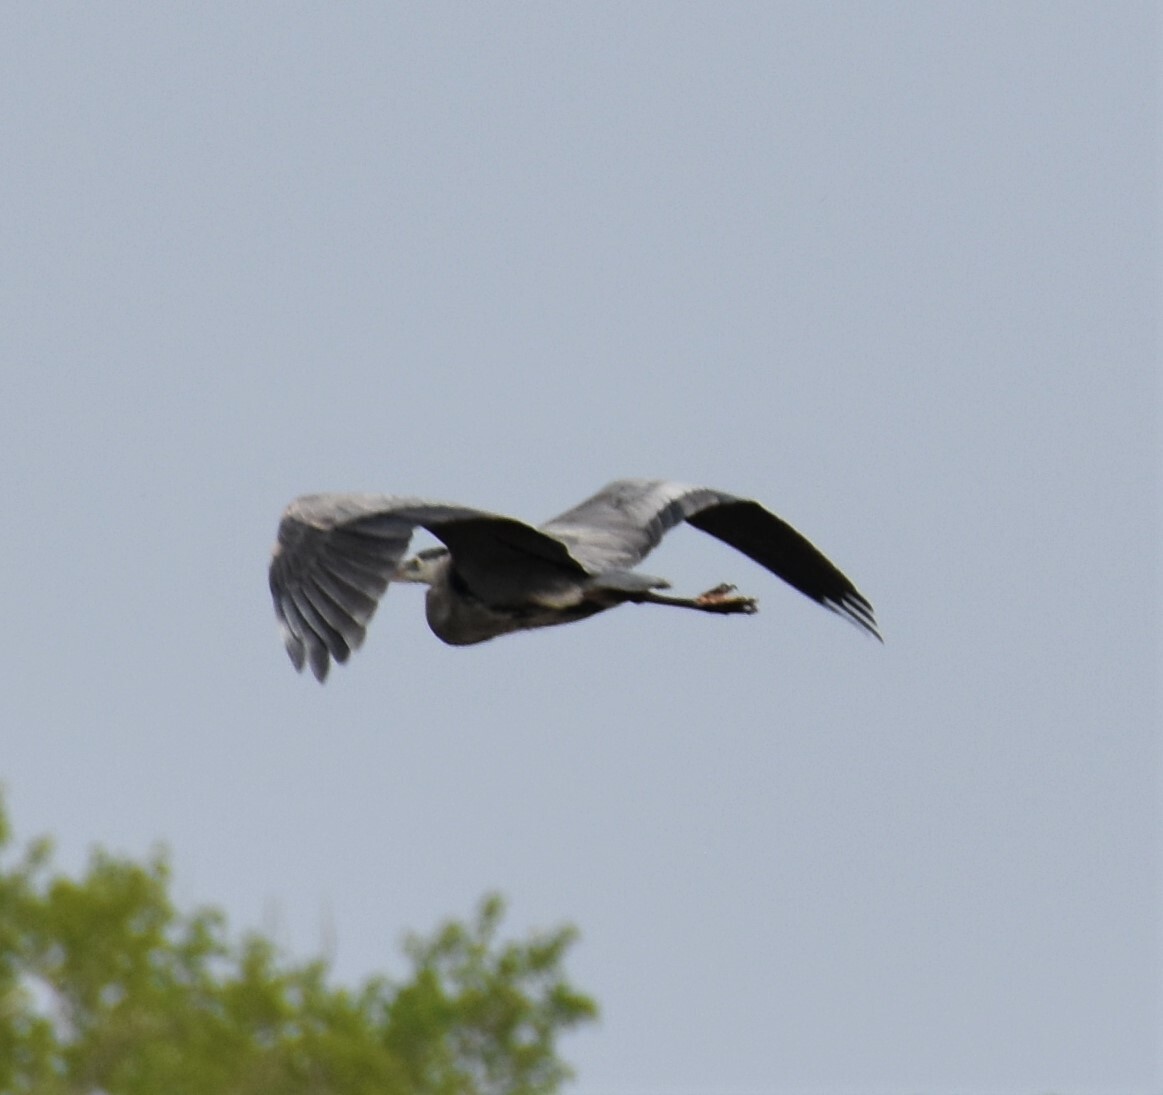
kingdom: Animalia
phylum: Chordata
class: Aves
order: Pelecaniformes
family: Ardeidae
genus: Ardea
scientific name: Ardea herodias
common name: Great blue heron
